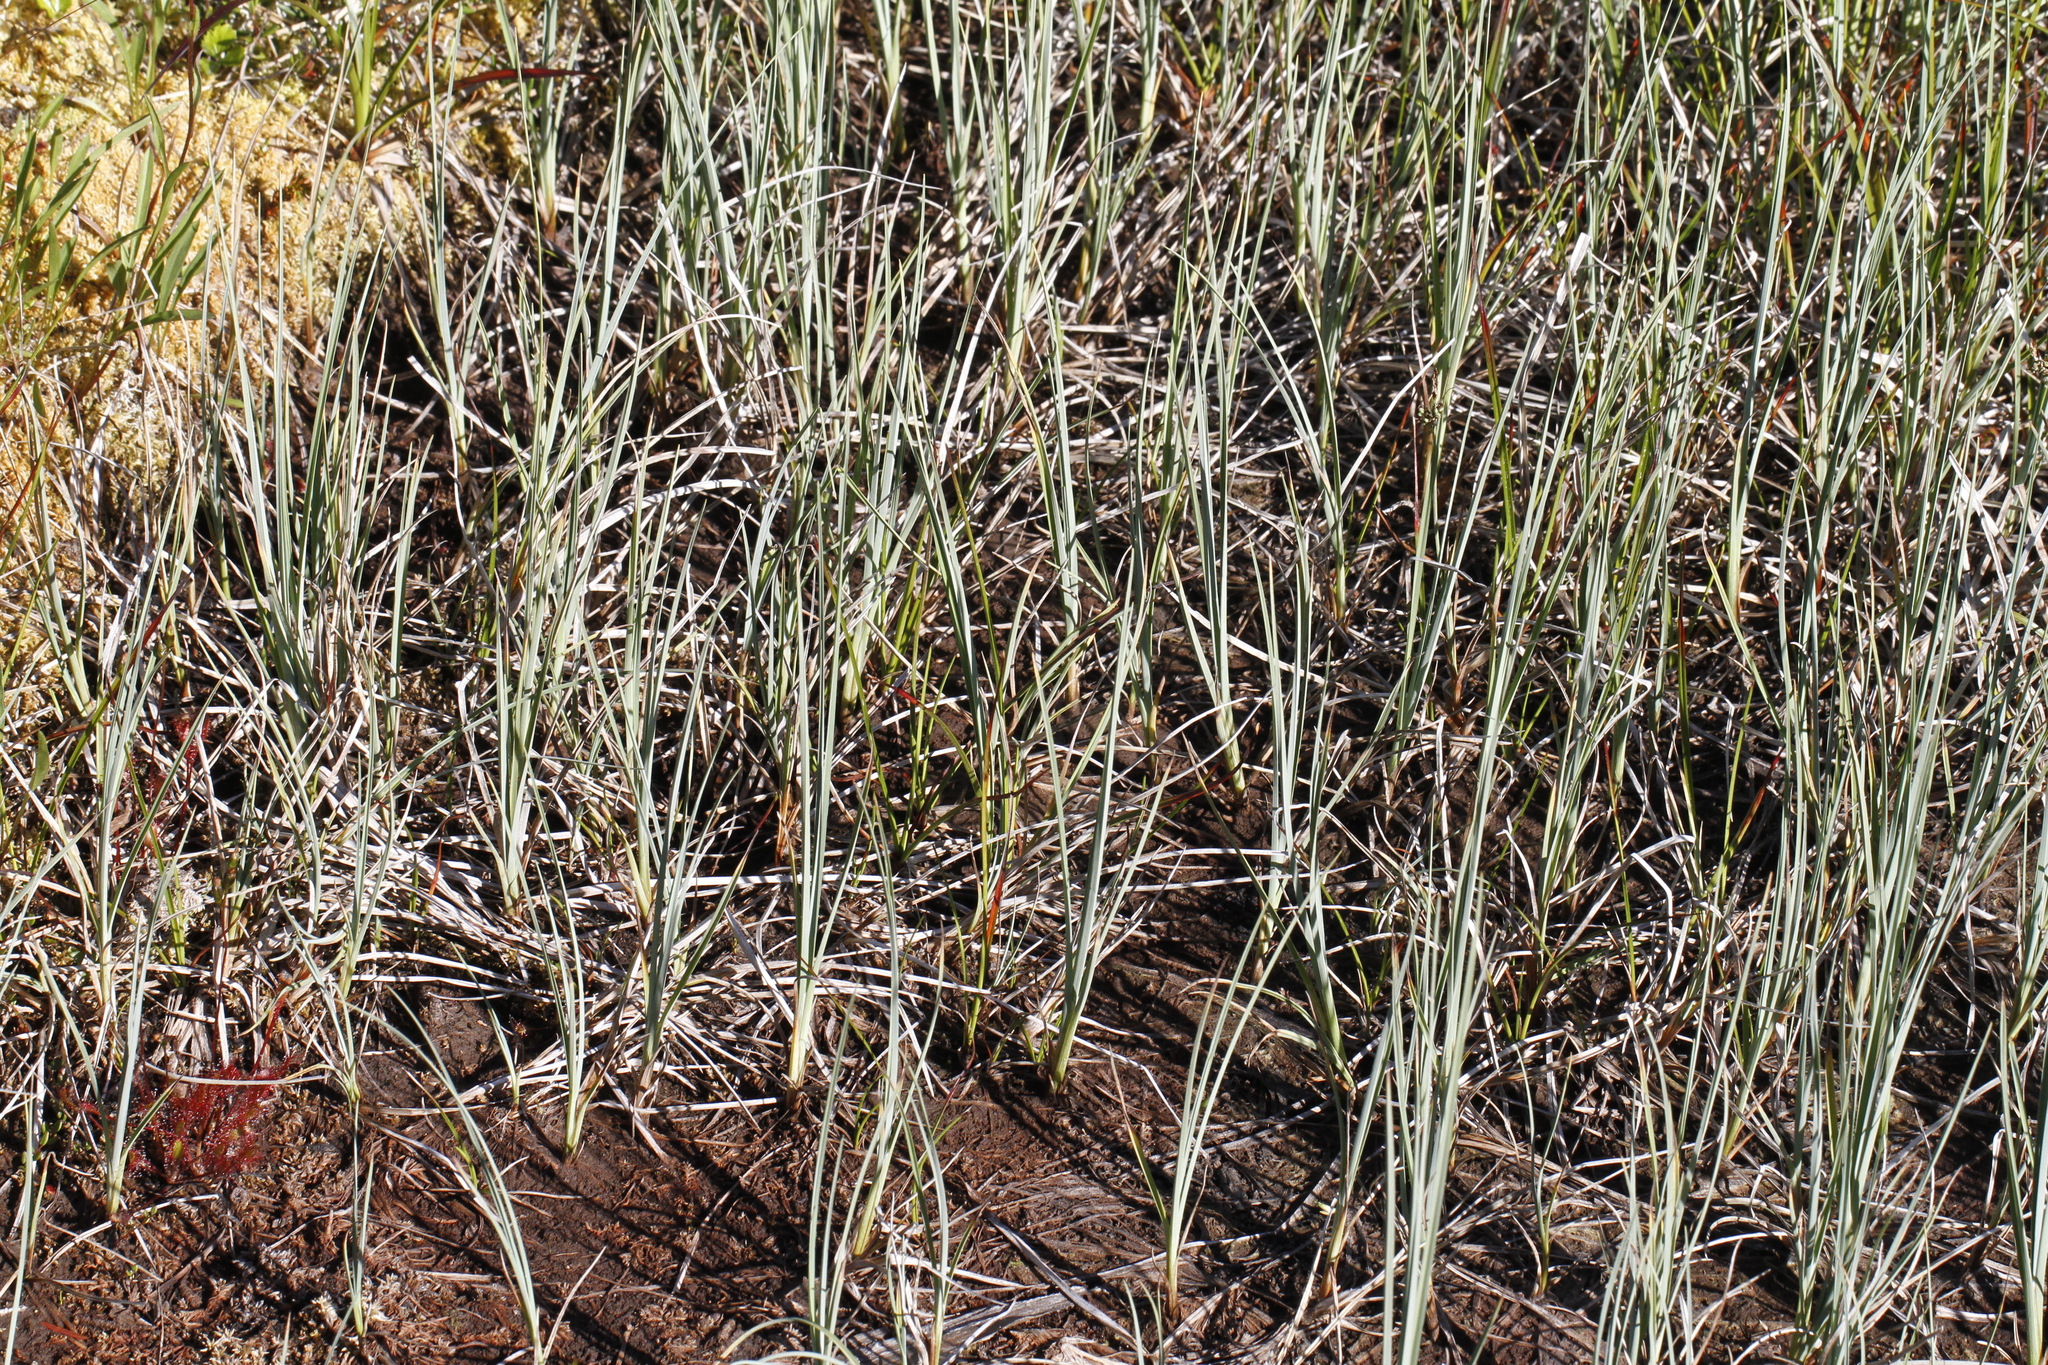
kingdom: Plantae
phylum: Tracheophyta
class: Liliopsida
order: Poales
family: Cyperaceae
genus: Carex
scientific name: Carex livida
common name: Livid sedge
